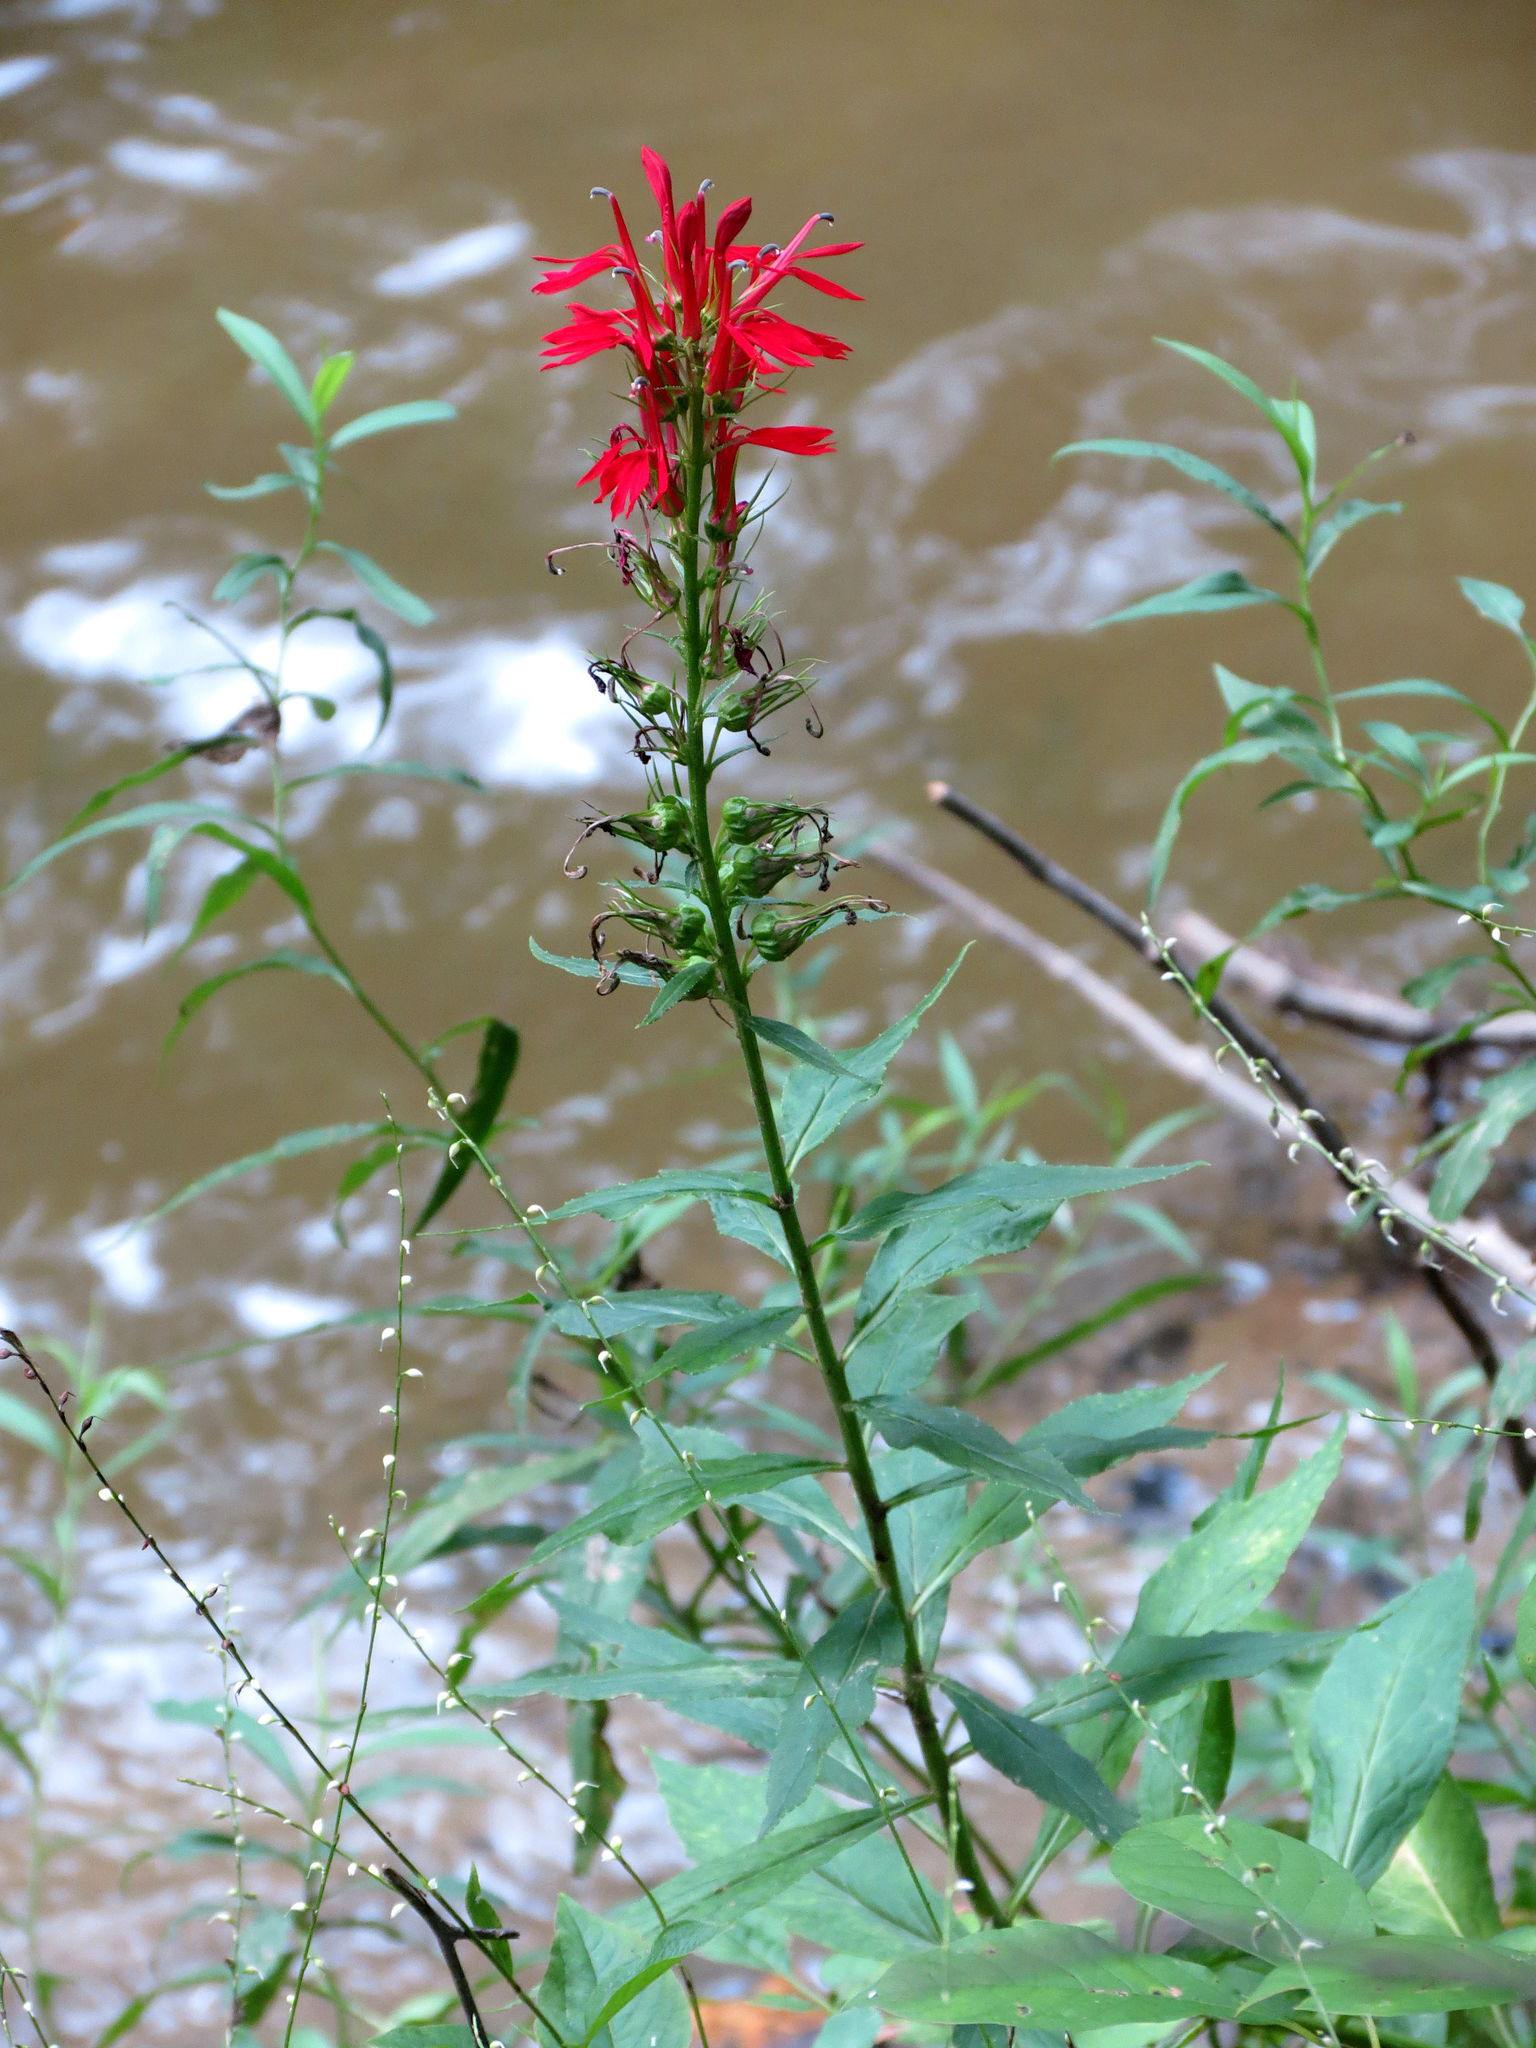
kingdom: Plantae
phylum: Tracheophyta
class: Magnoliopsida
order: Asterales
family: Campanulaceae
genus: Lobelia
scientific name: Lobelia cardinalis
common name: Cardinal flower
